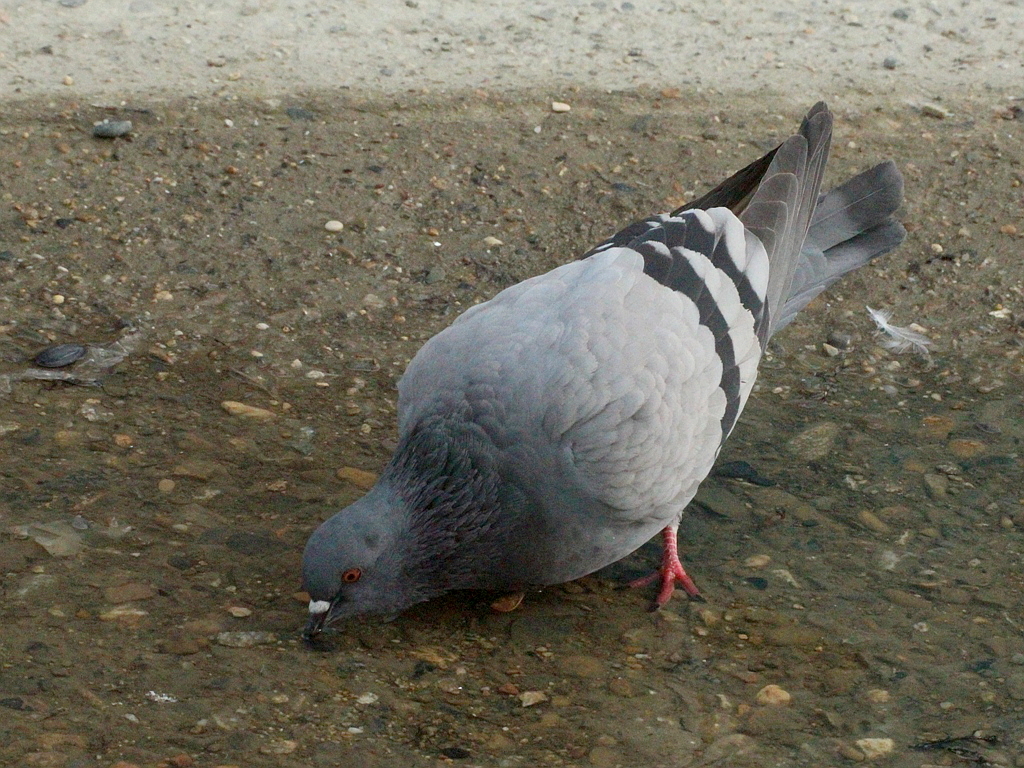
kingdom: Animalia
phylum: Chordata
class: Aves
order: Columbiformes
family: Columbidae
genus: Columba
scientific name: Columba livia
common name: Rock pigeon
